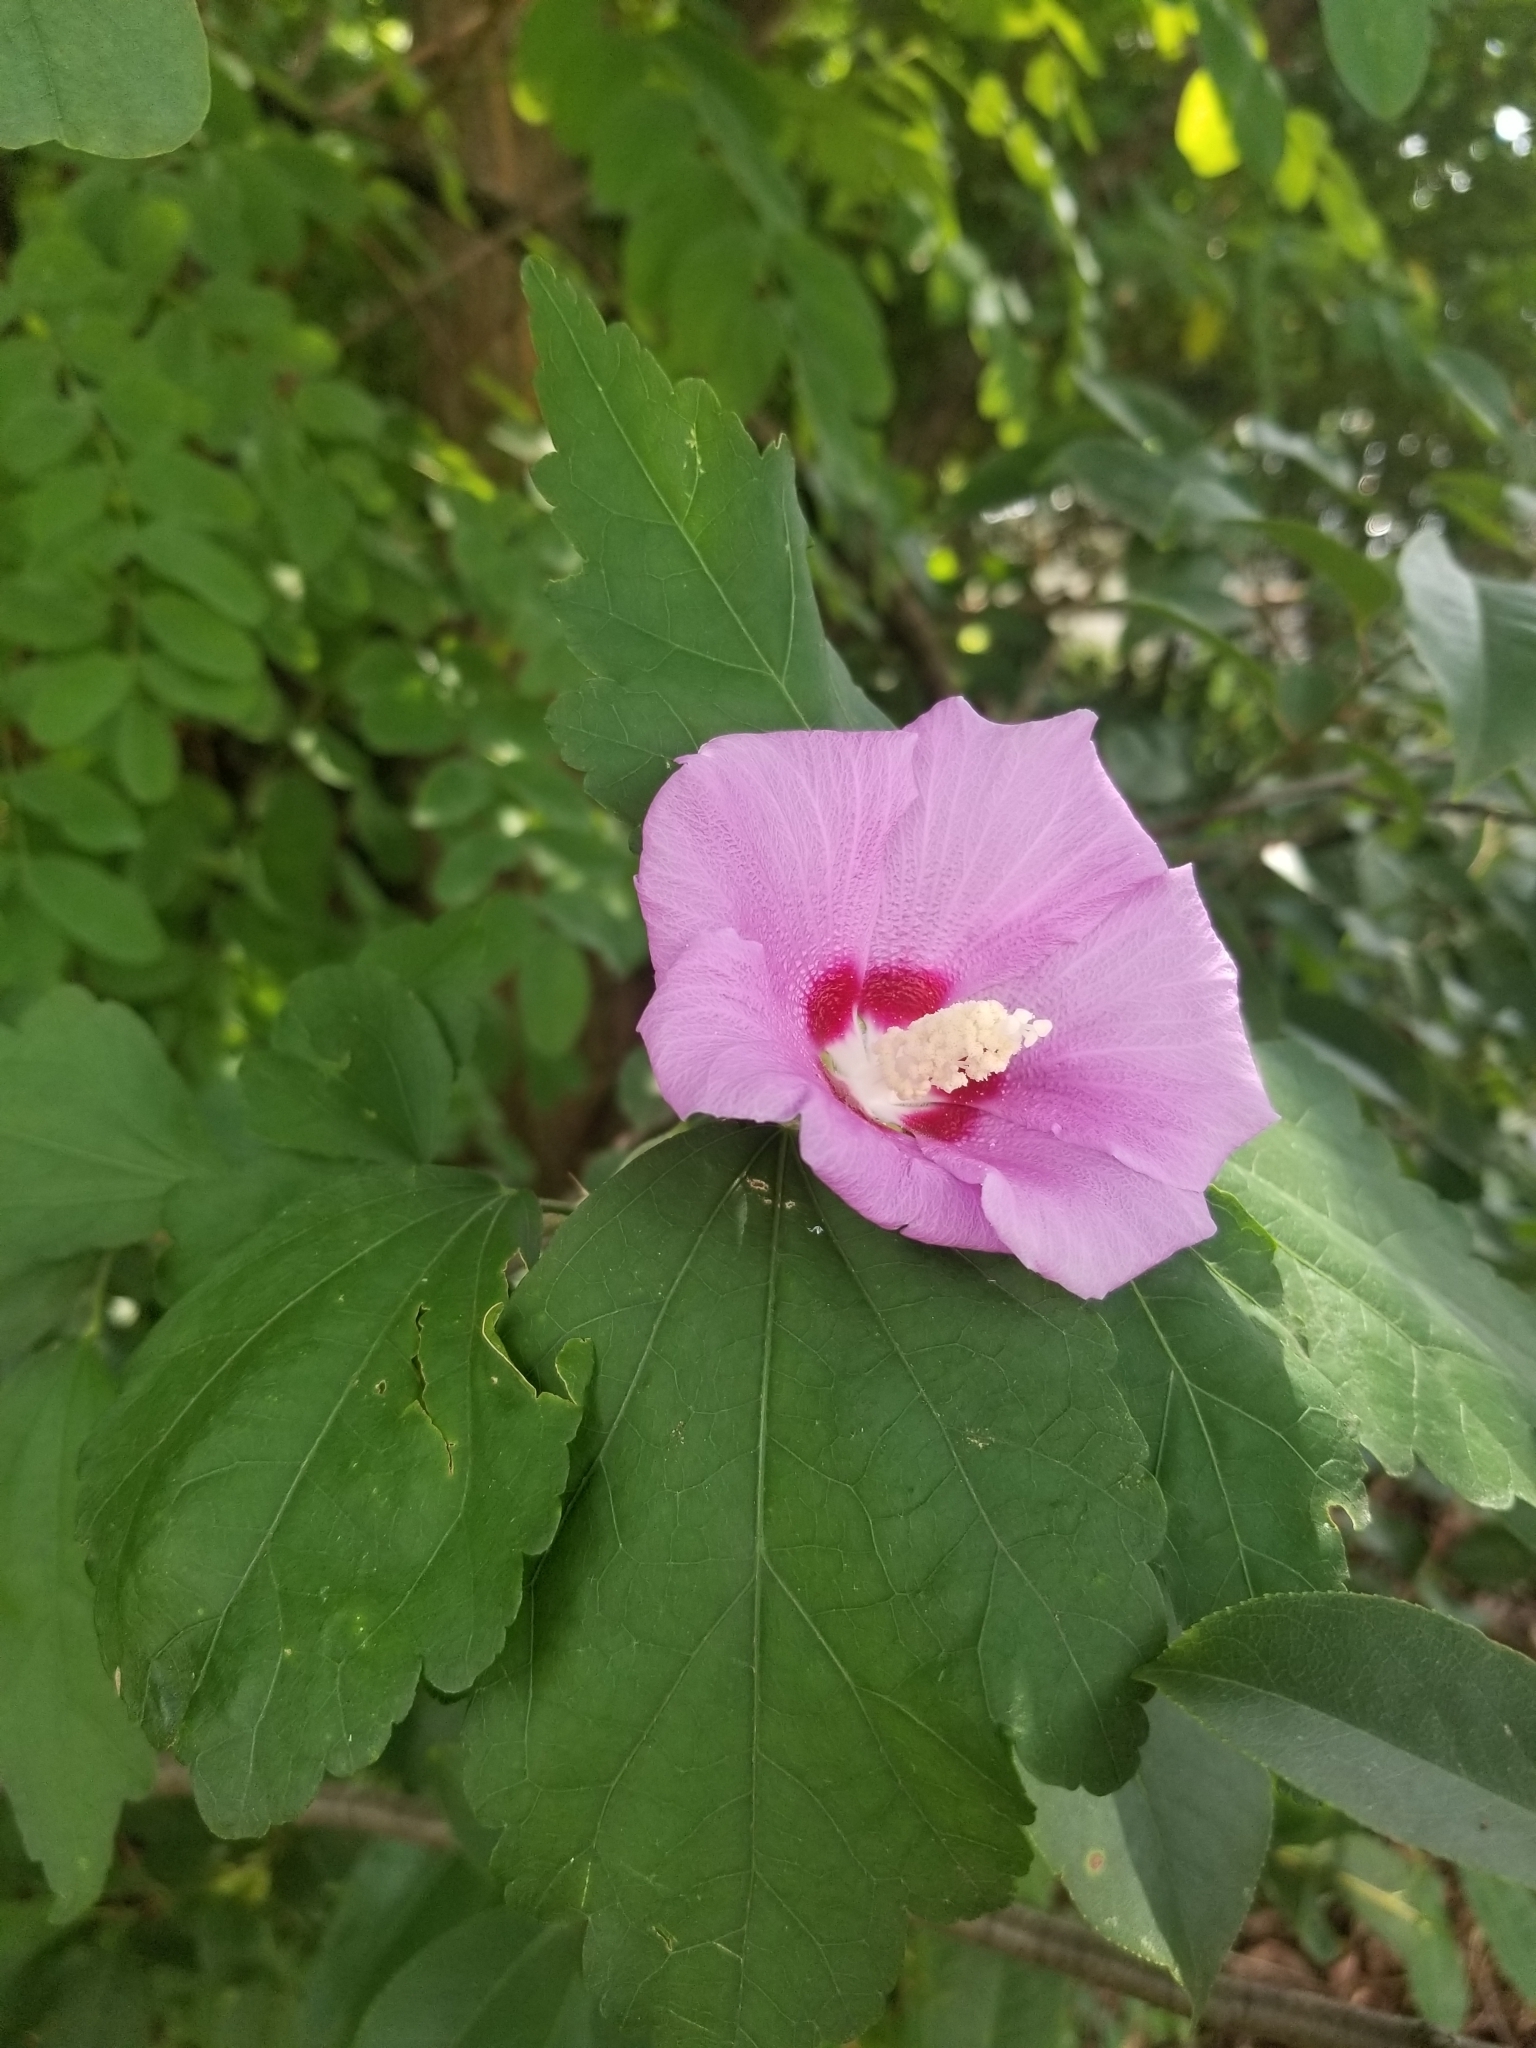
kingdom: Plantae
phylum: Tracheophyta
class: Magnoliopsida
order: Malvales
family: Malvaceae
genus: Hibiscus
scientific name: Hibiscus syriacus
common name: Syrian ketmia
